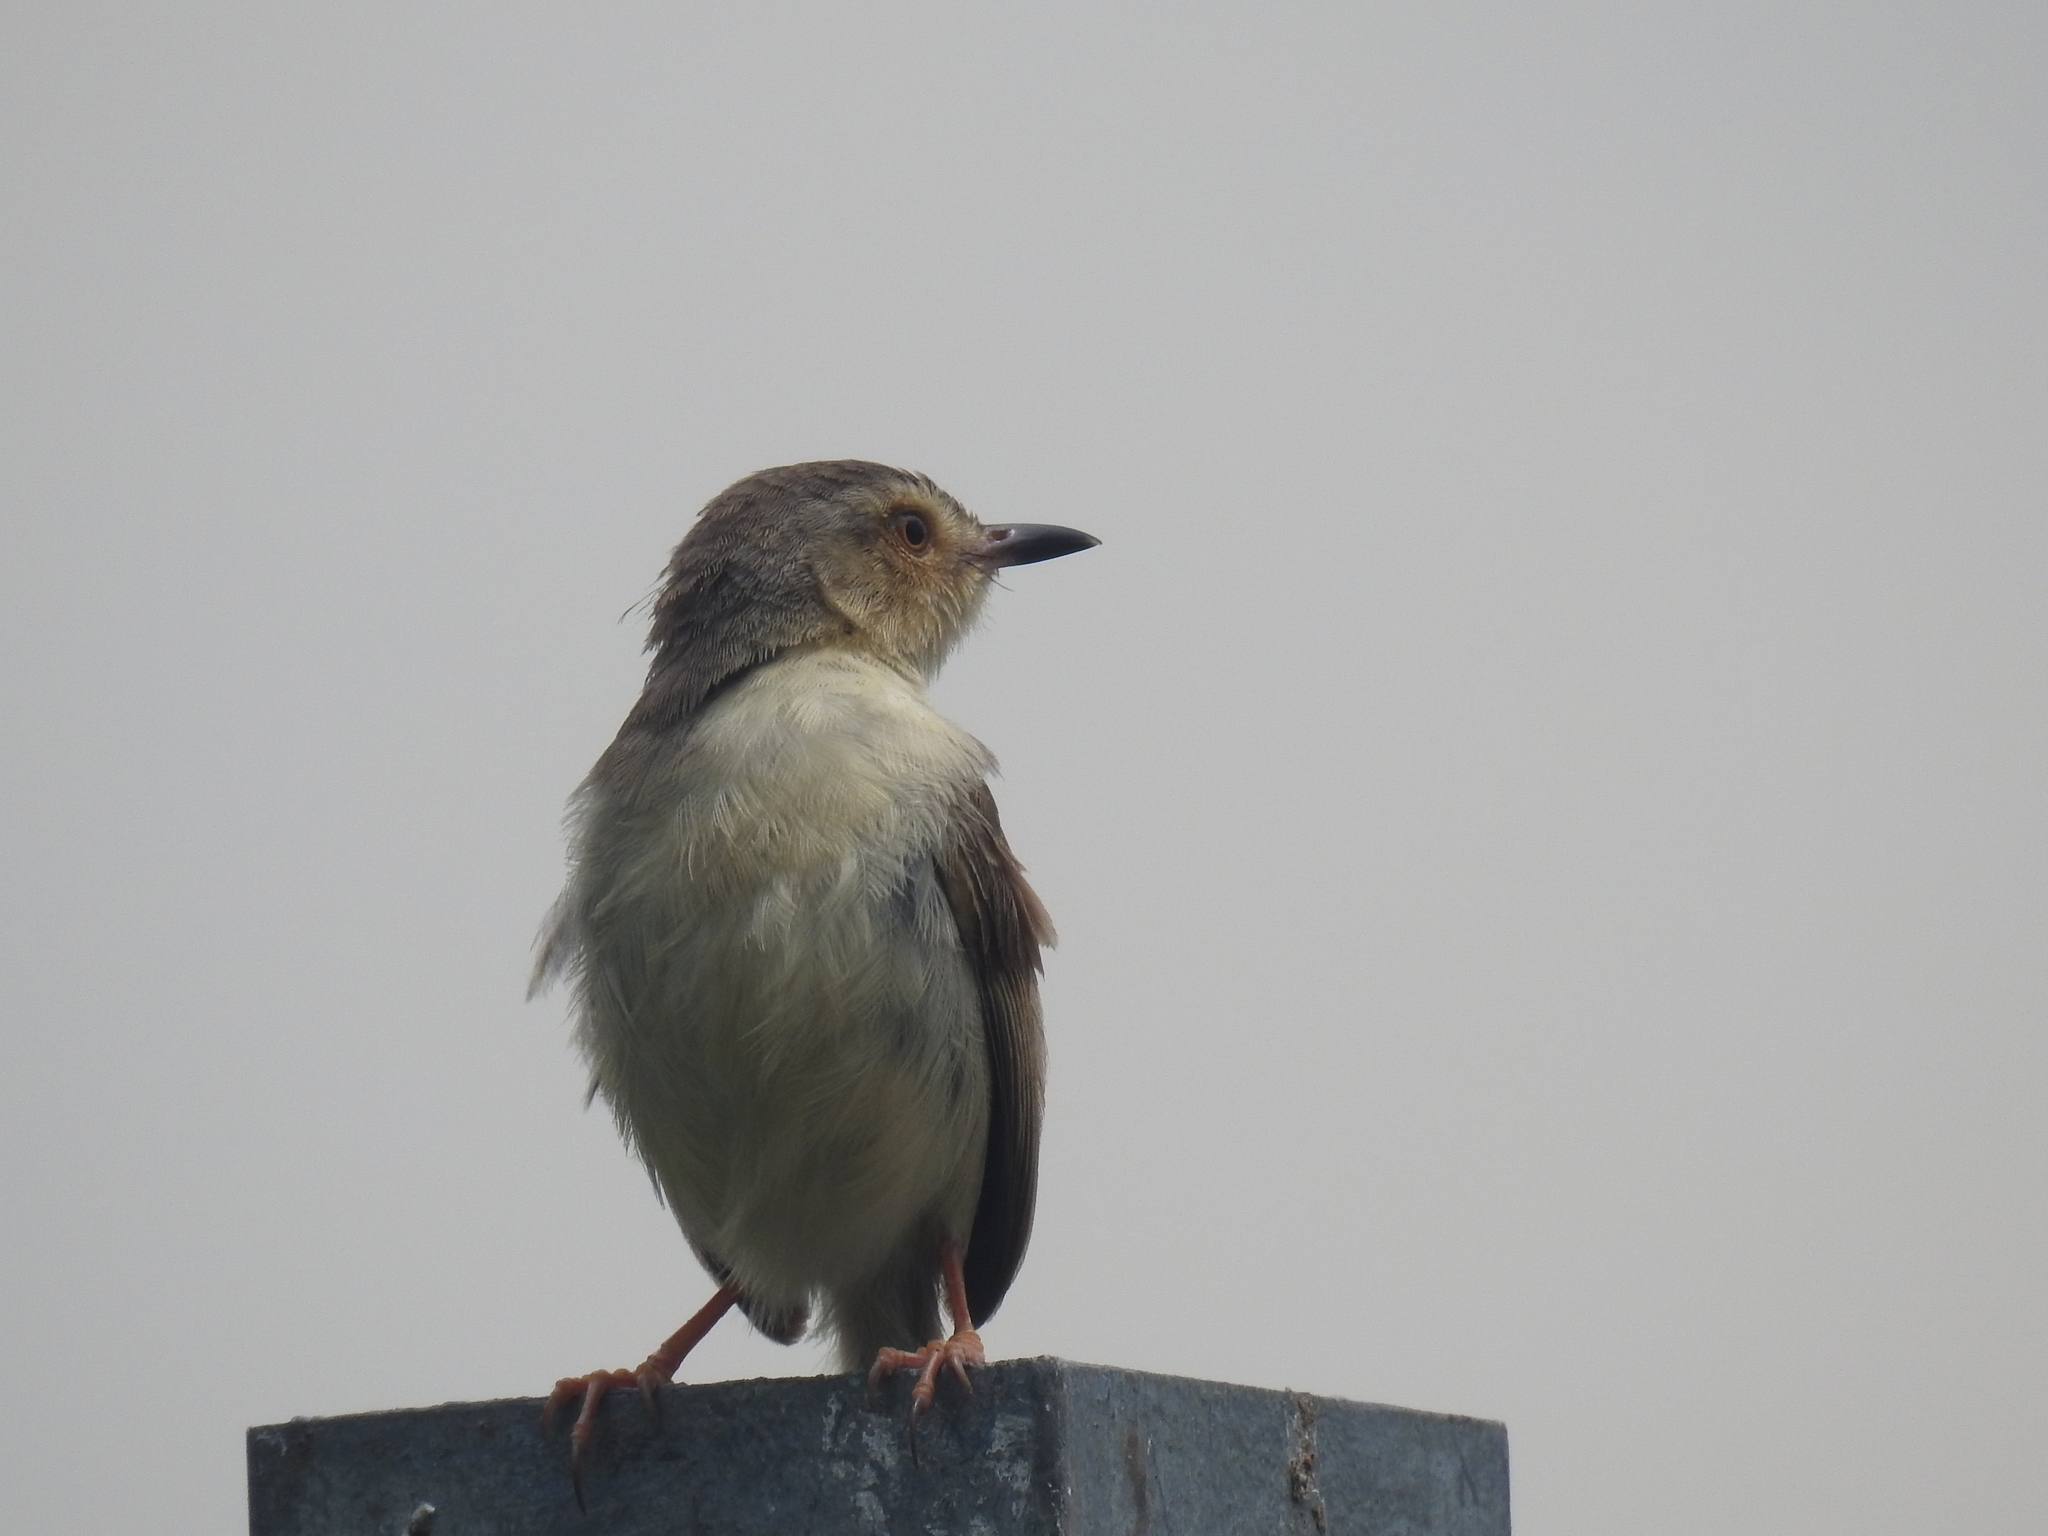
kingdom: Animalia
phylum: Chordata
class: Aves
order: Passeriformes
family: Cisticolidae
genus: Prinia
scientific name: Prinia inornata
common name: Plain prinia
